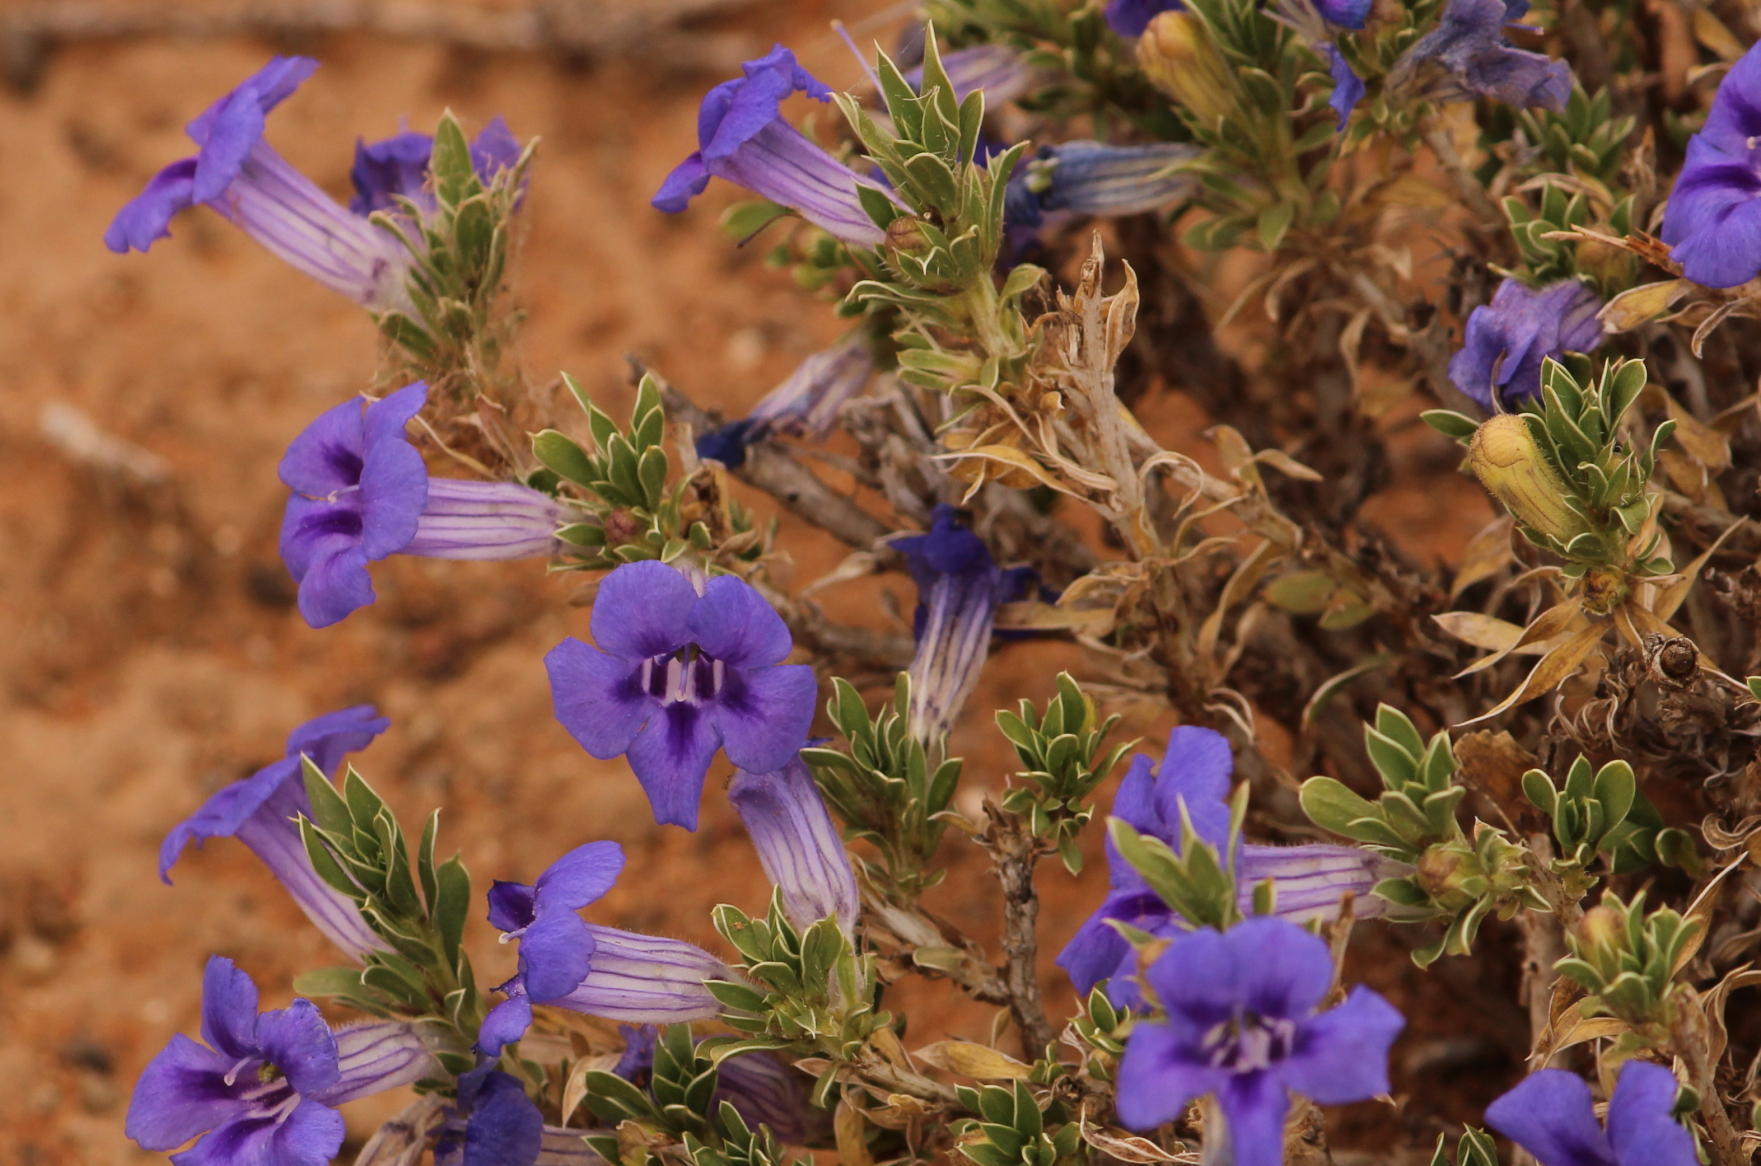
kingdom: Plantae
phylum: Tracheophyta
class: Magnoliopsida
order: Lamiales
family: Scrophulariaceae
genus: Aptosimum
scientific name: Aptosimum albomarginatum
